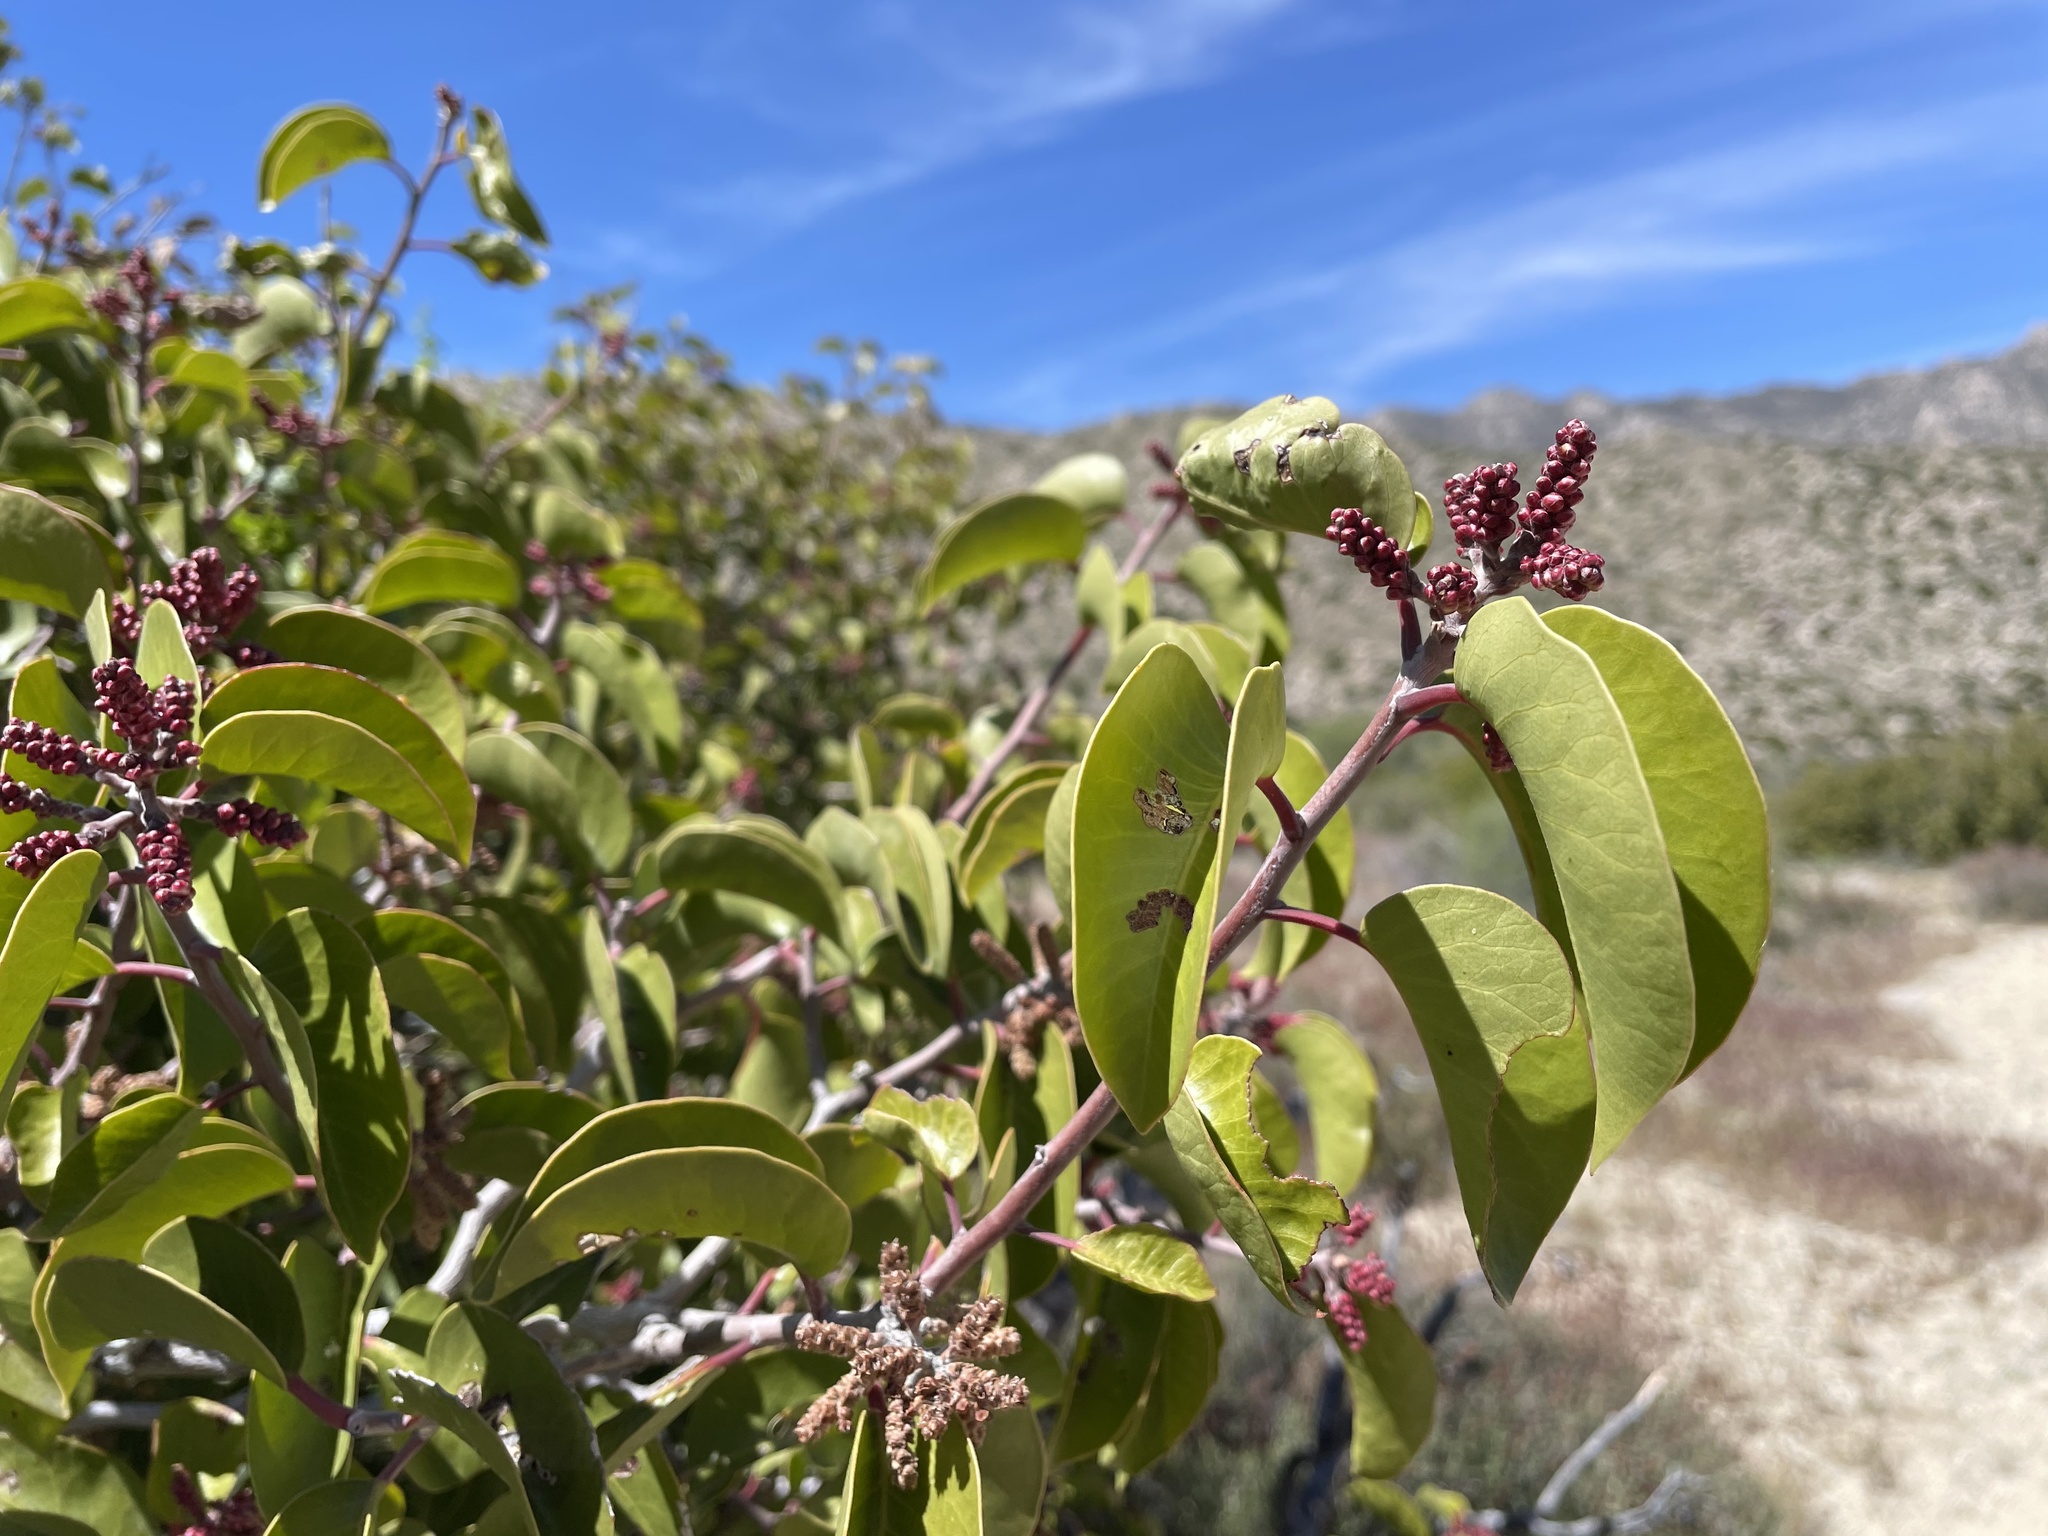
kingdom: Plantae
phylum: Tracheophyta
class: Magnoliopsida
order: Sapindales
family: Anacardiaceae
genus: Rhus
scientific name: Rhus ovata
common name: Sugar sumac
